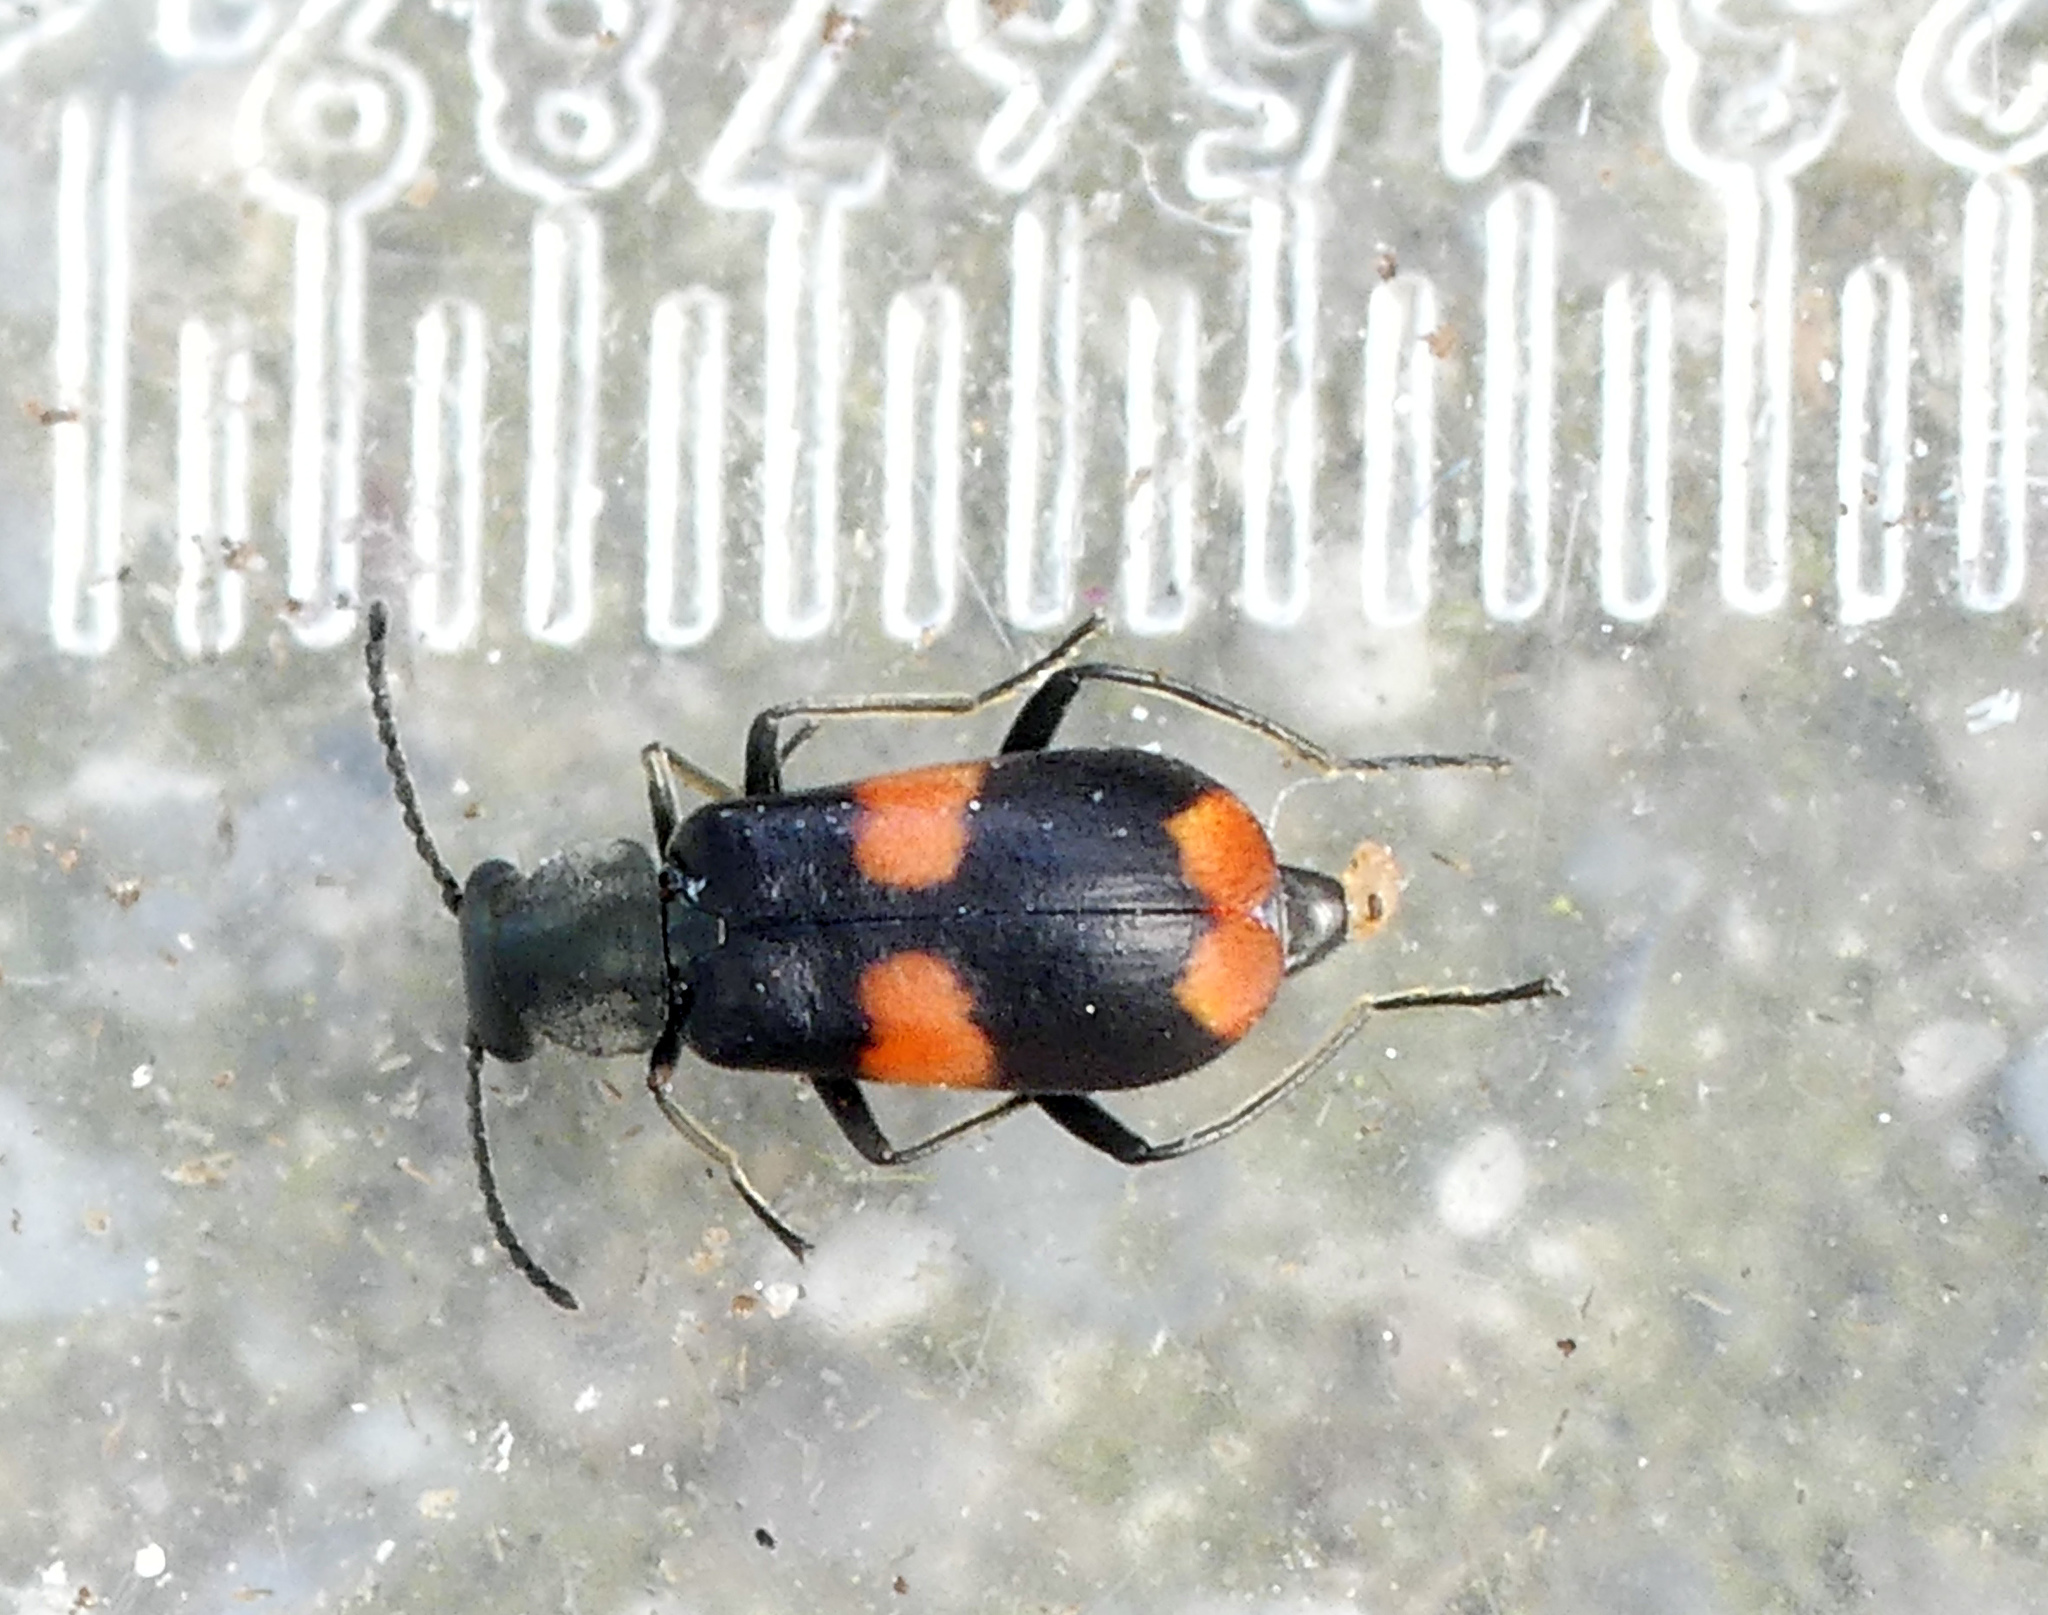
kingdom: Animalia
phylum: Arthropoda
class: Insecta
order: Coleoptera
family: Melyridae
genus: Anthocomus
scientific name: Anthocomus fasciatus
